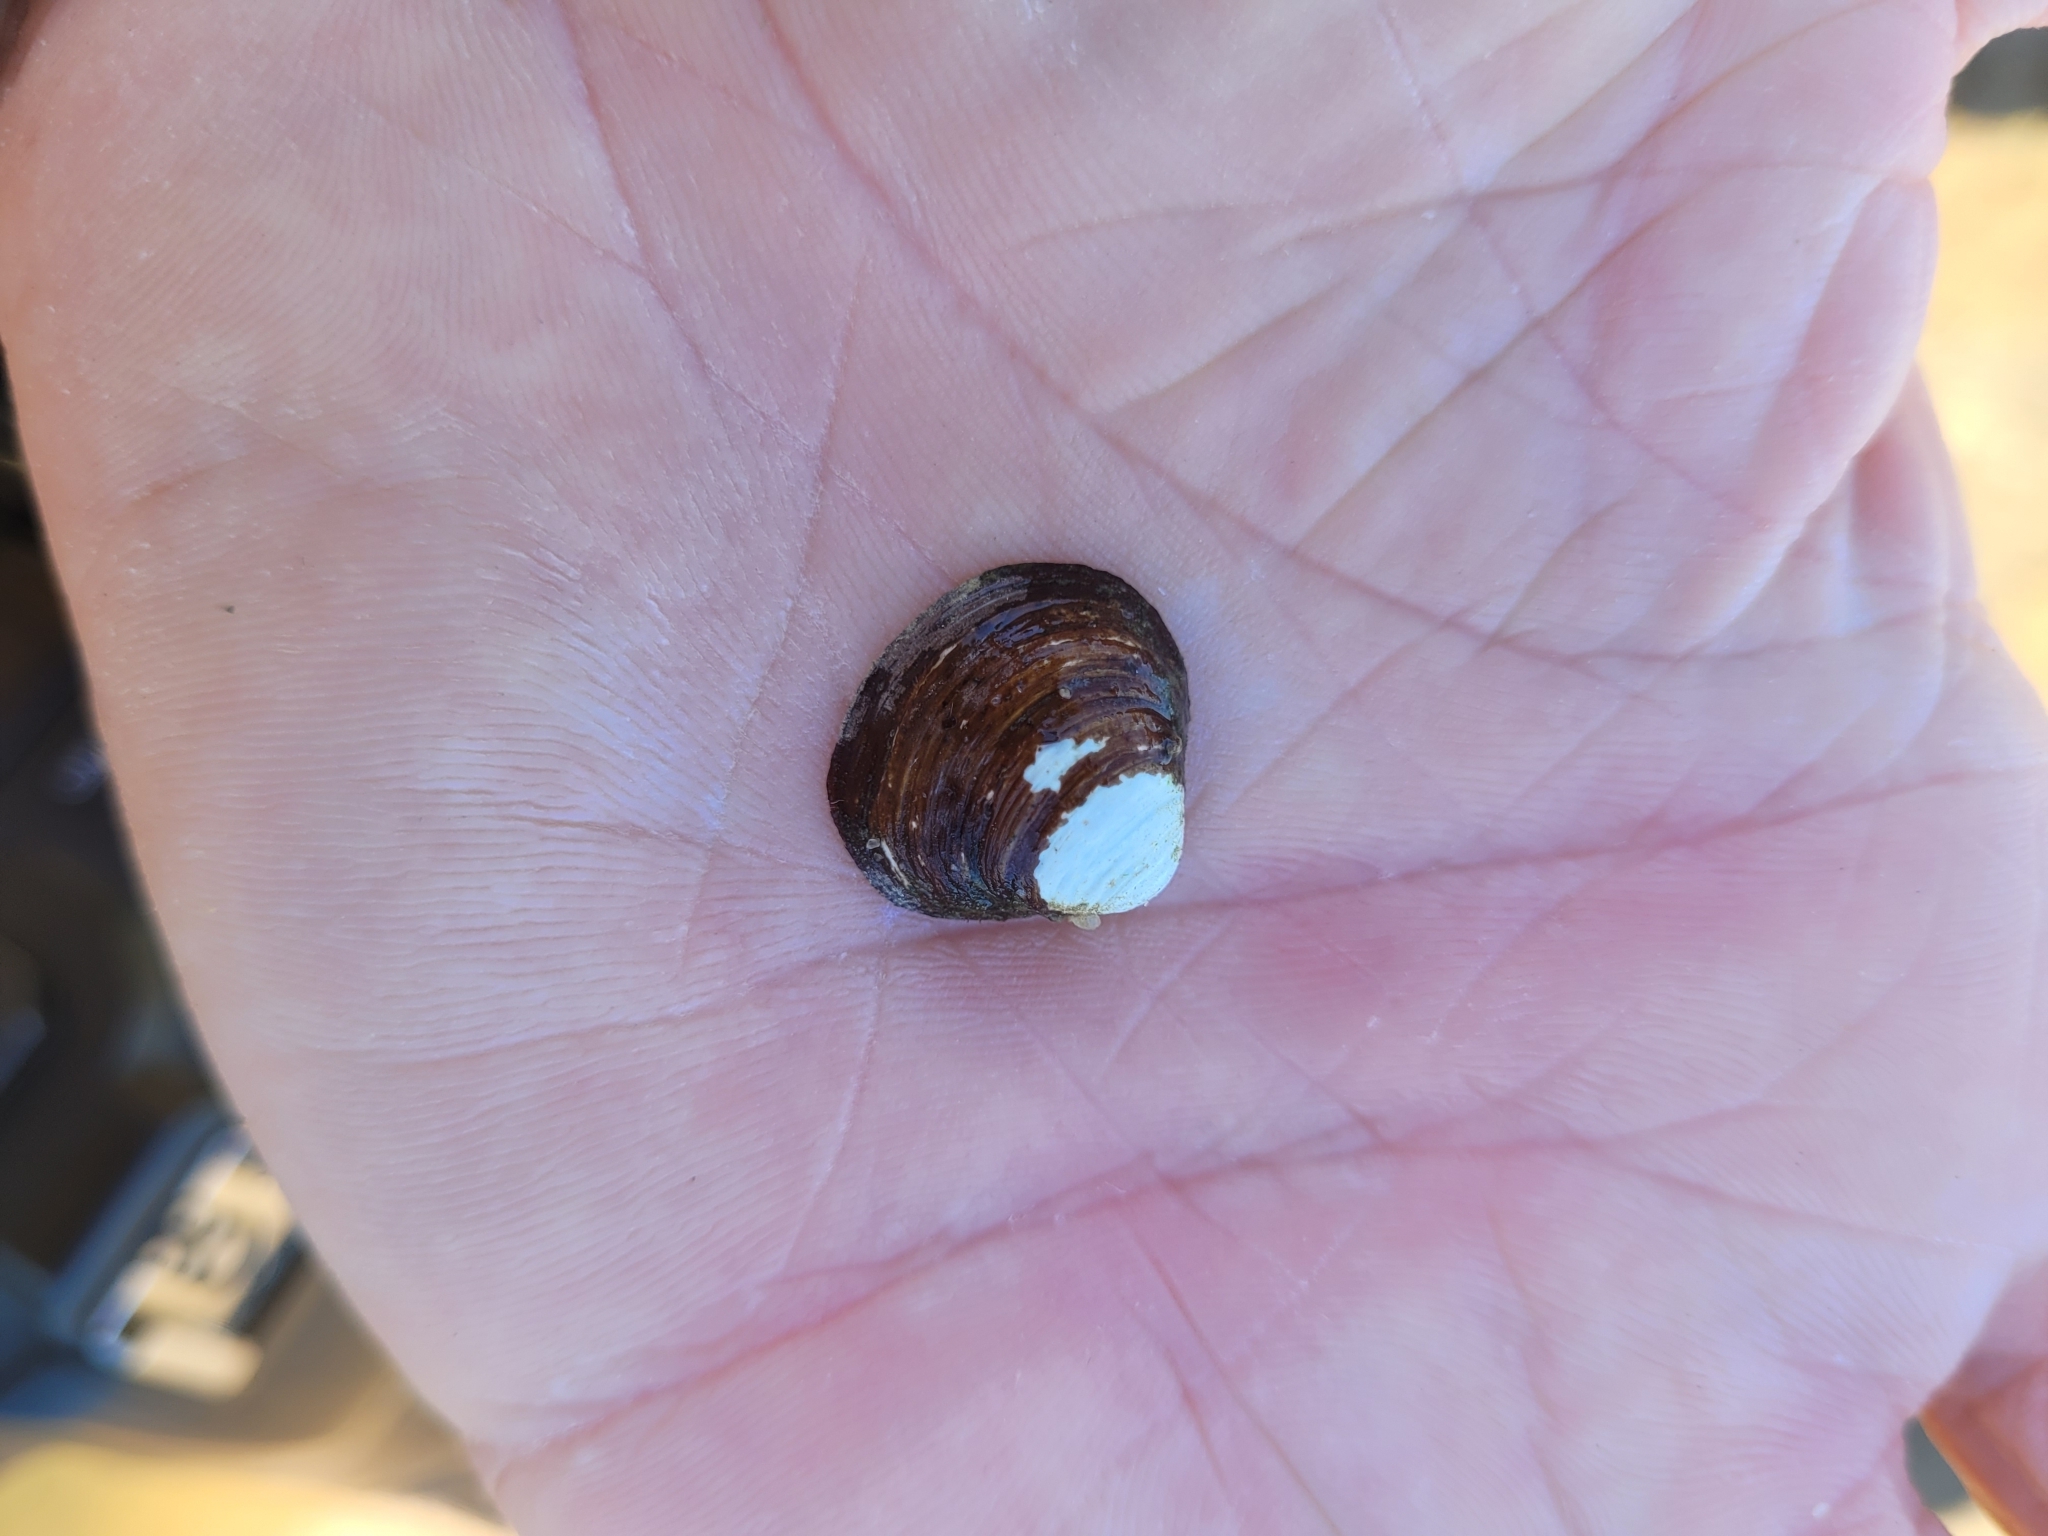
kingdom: Animalia
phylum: Mollusca
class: Bivalvia
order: Venerida
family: Cyrenidae
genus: Corbicula
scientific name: Corbicula fluminea
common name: Asian clam
